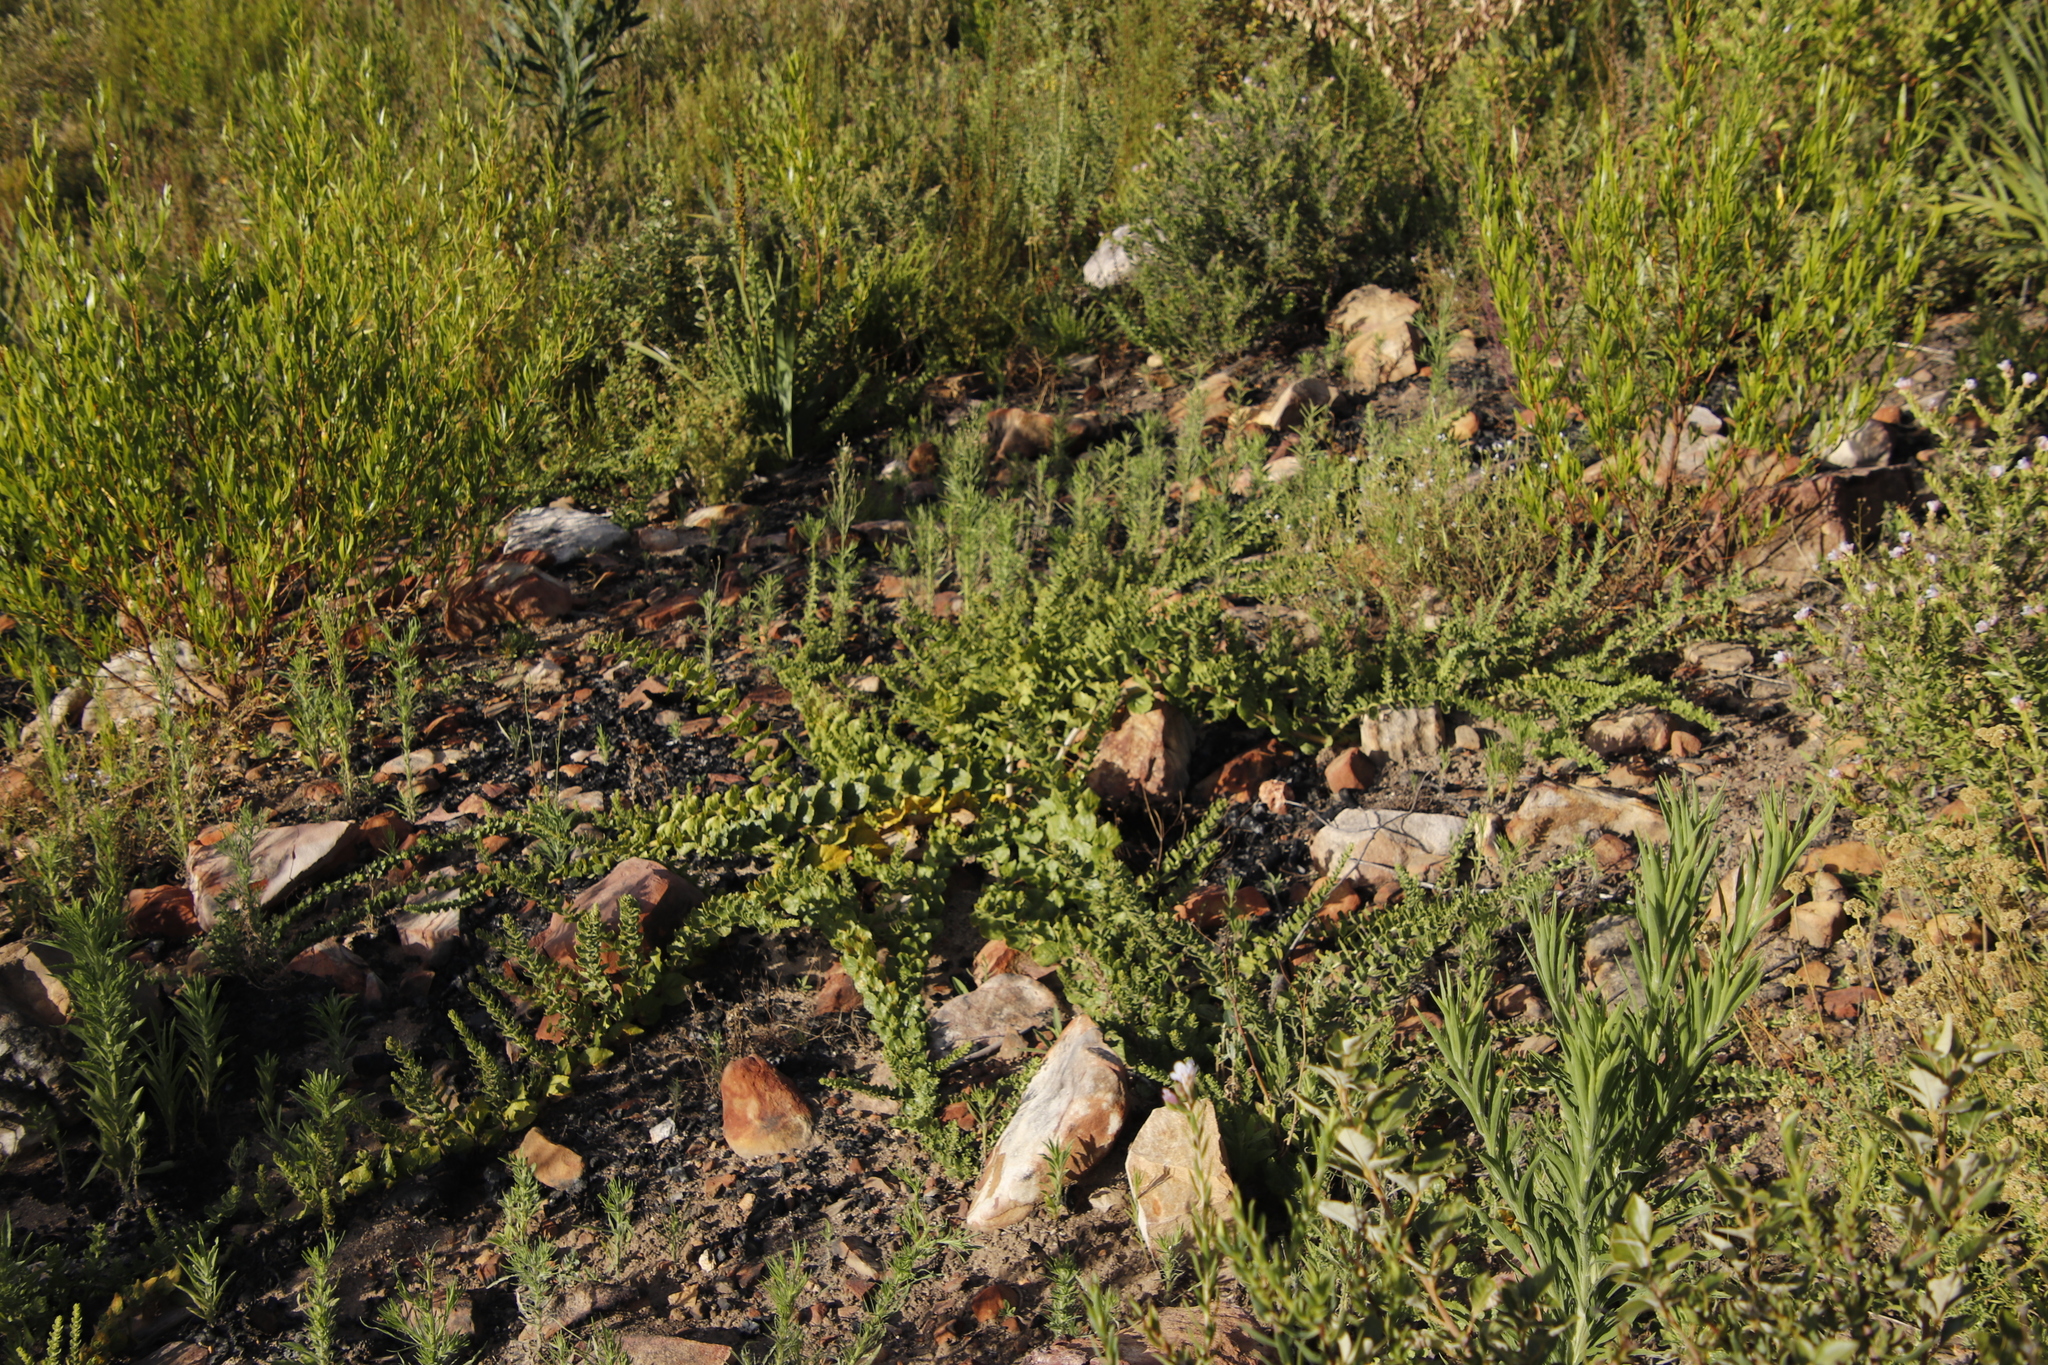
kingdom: Plantae
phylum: Tracheophyta
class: Magnoliopsida
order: Lamiales
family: Scrophulariaceae
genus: Oftia
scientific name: Oftia africana
